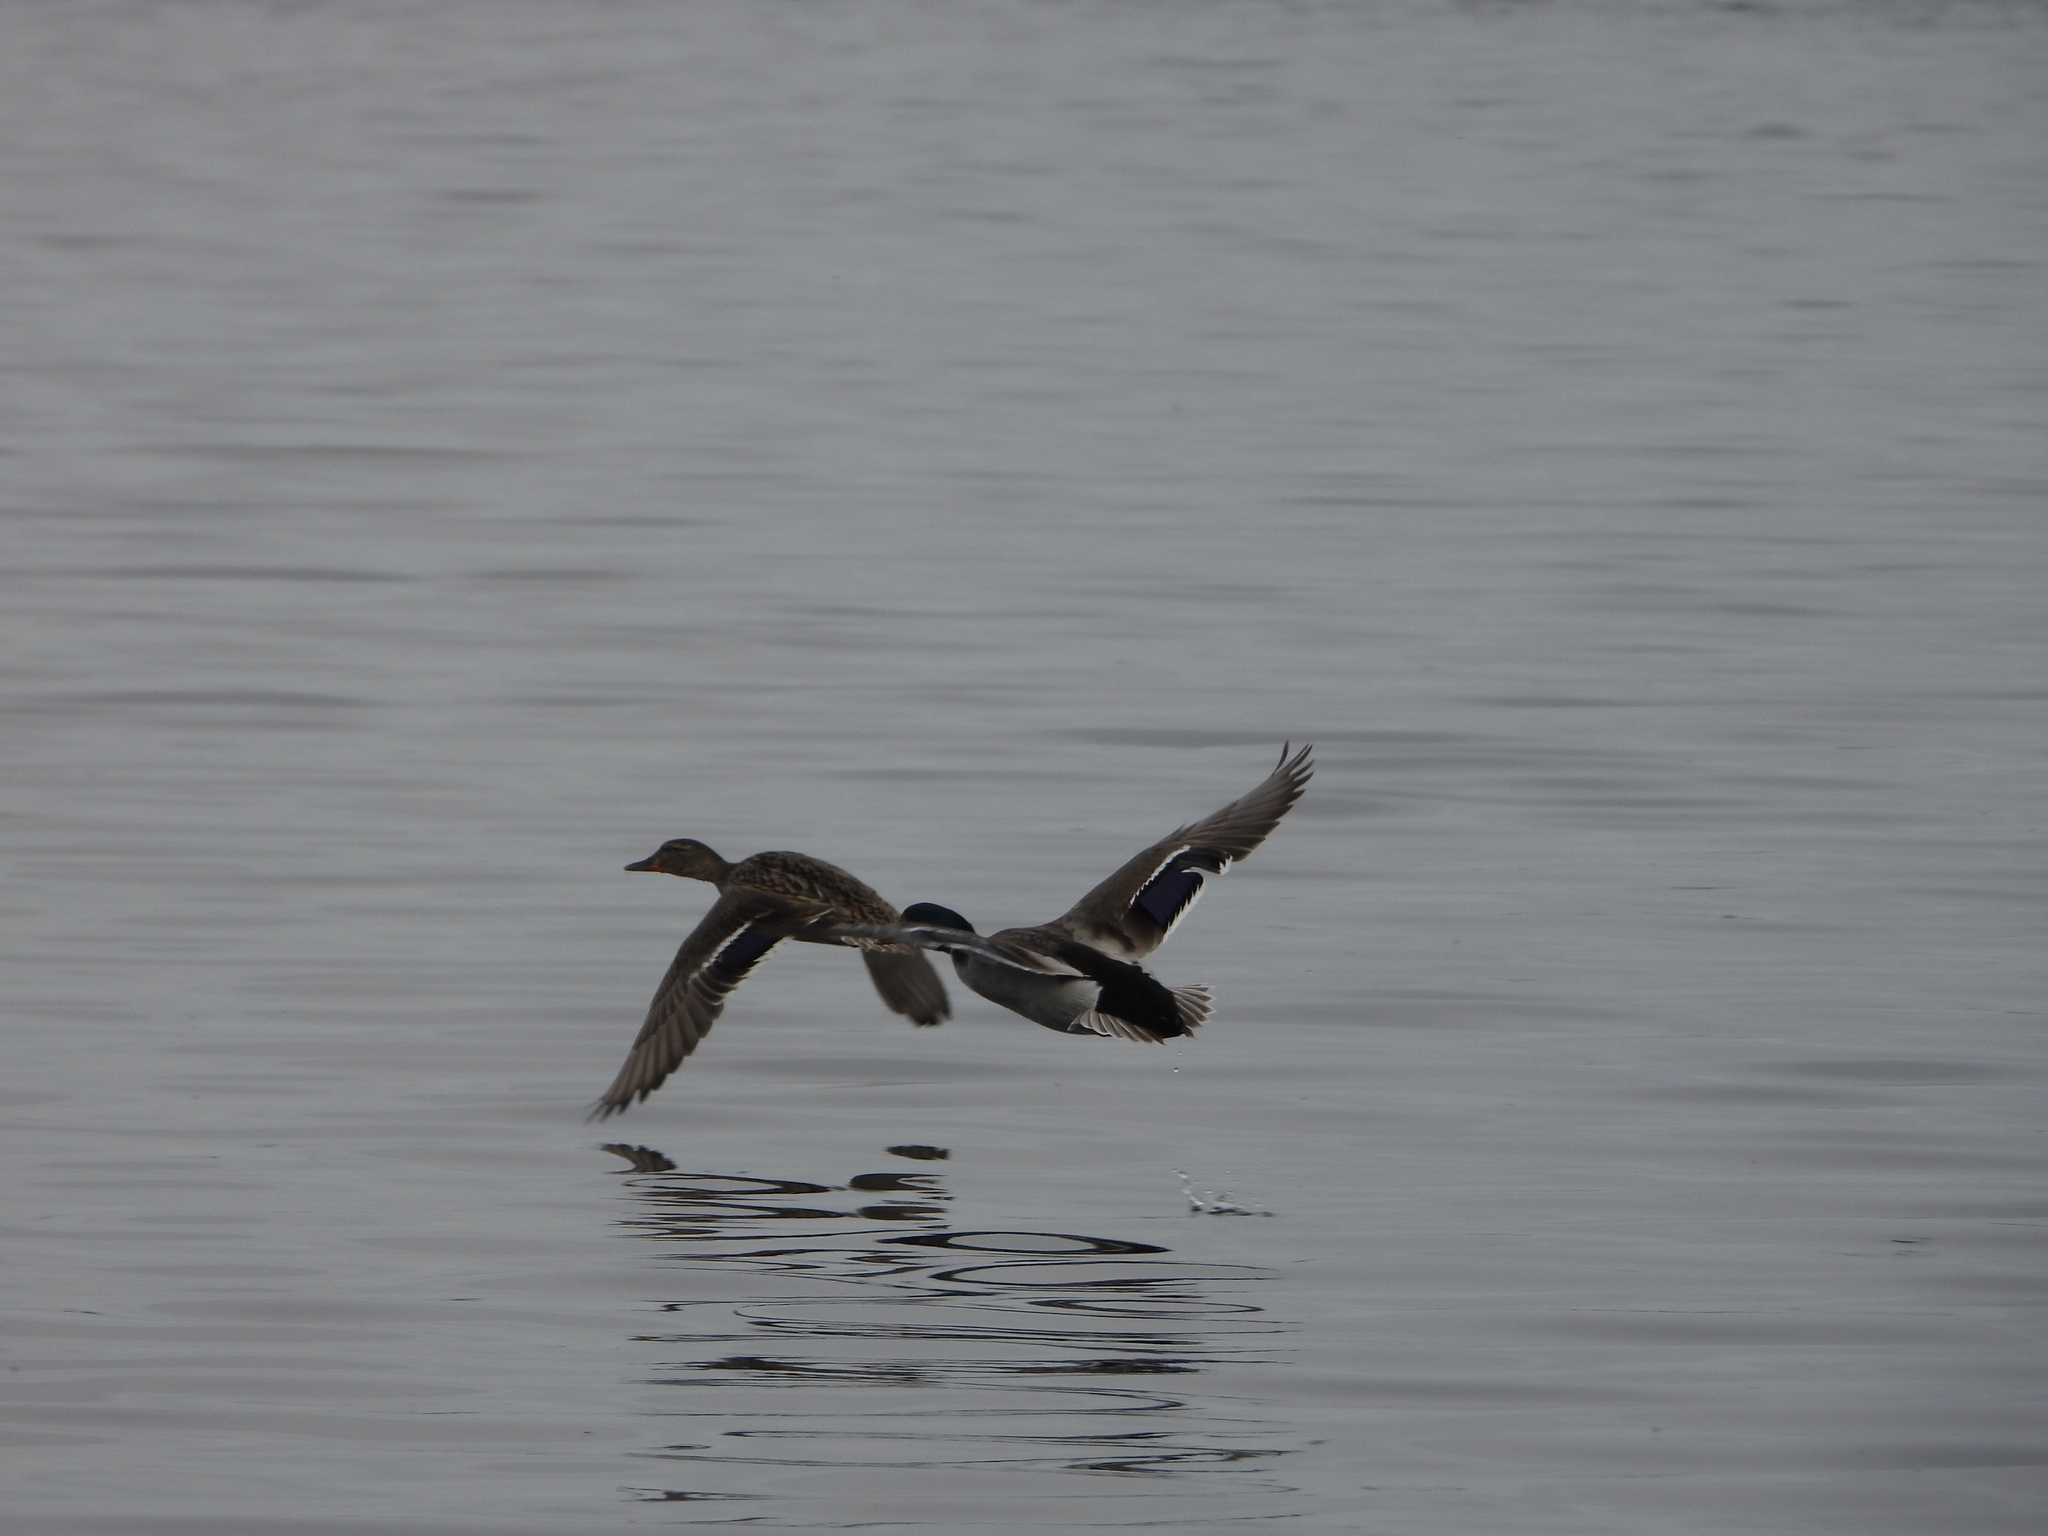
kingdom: Animalia
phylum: Chordata
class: Aves
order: Anseriformes
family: Anatidae
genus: Anas
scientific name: Anas platyrhynchos
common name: Mallard
